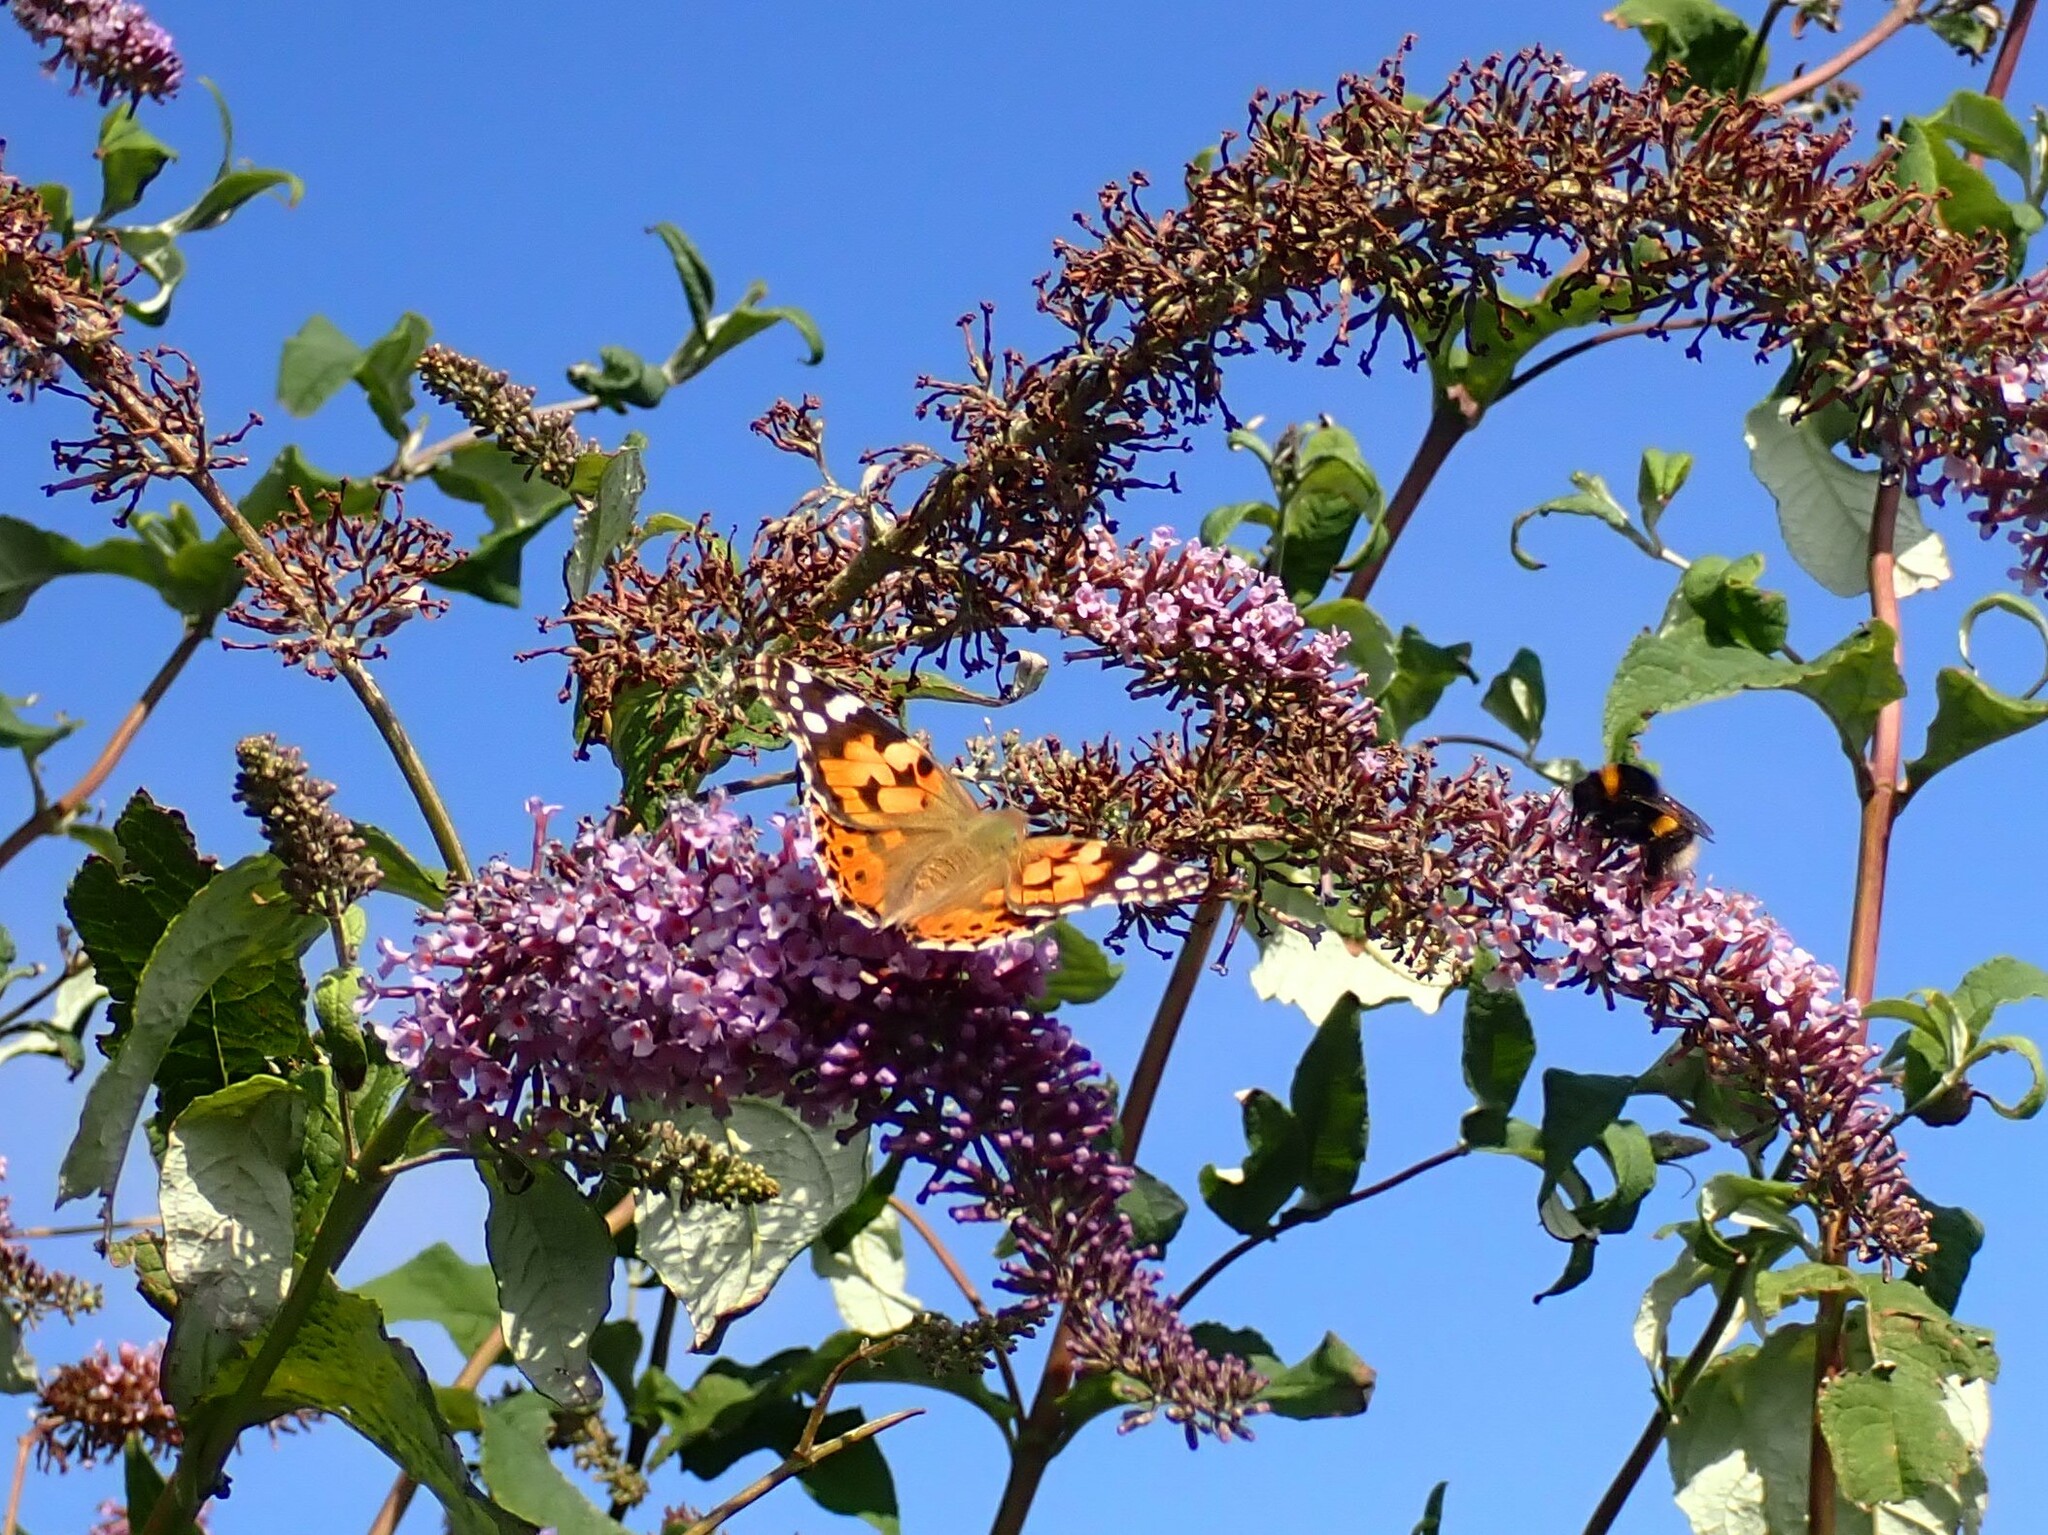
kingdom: Animalia
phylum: Arthropoda
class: Insecta
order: Lepidoptera
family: Nymphalidae
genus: Vanessa
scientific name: Vanessa cardui
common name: Painted lady
